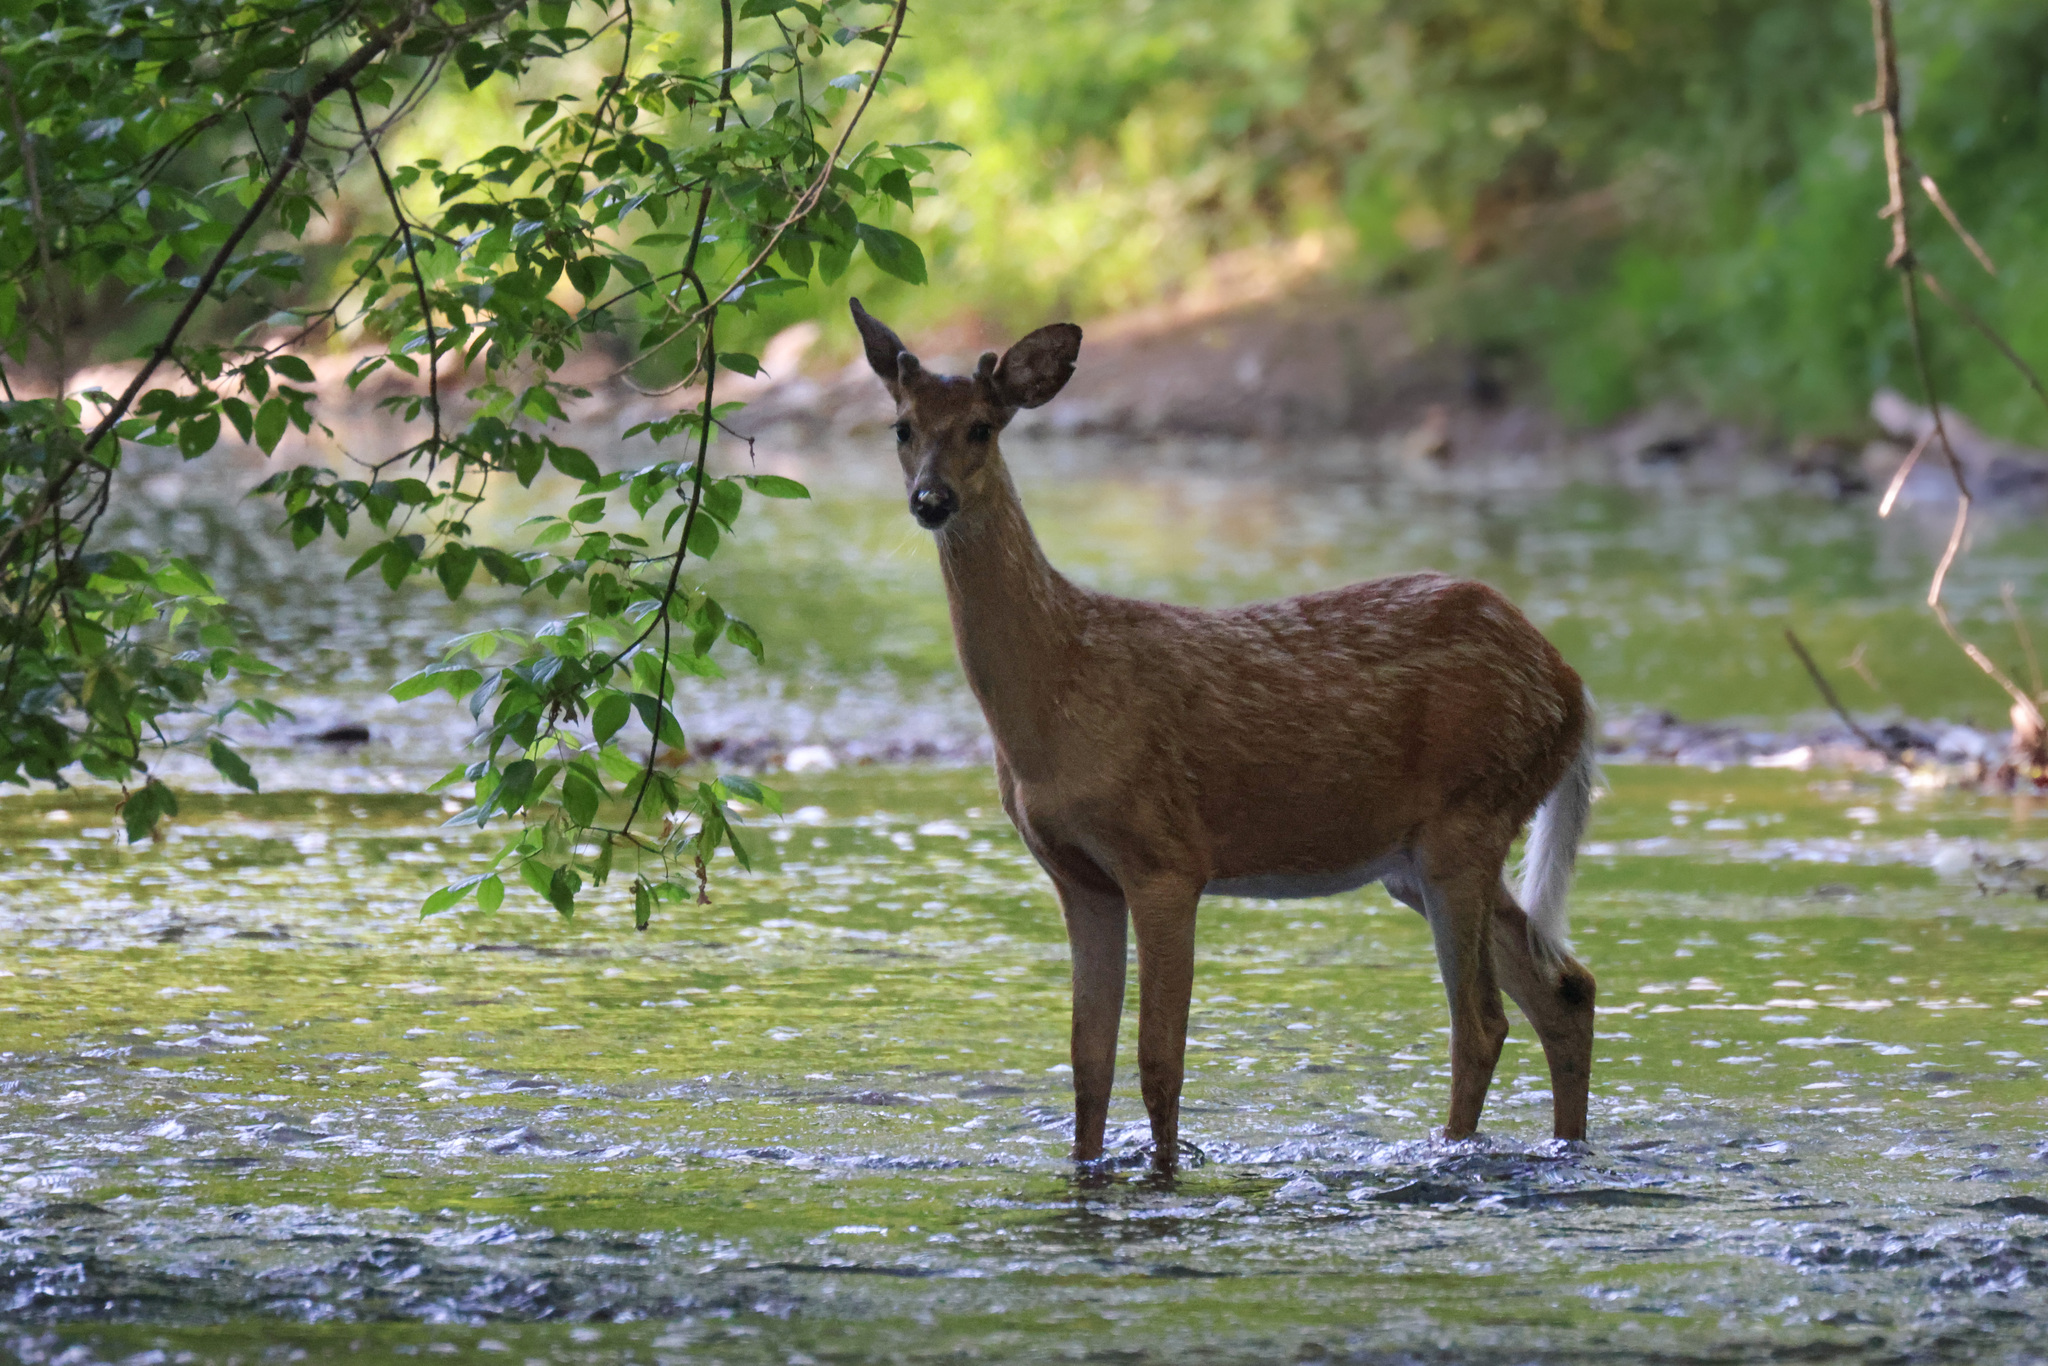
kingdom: Animalia
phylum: Chordata
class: Mammalia
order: Artiodactyla
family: Cervidae
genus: Odocoileus
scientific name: Odocoileus virginianus
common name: White-tailed deer
